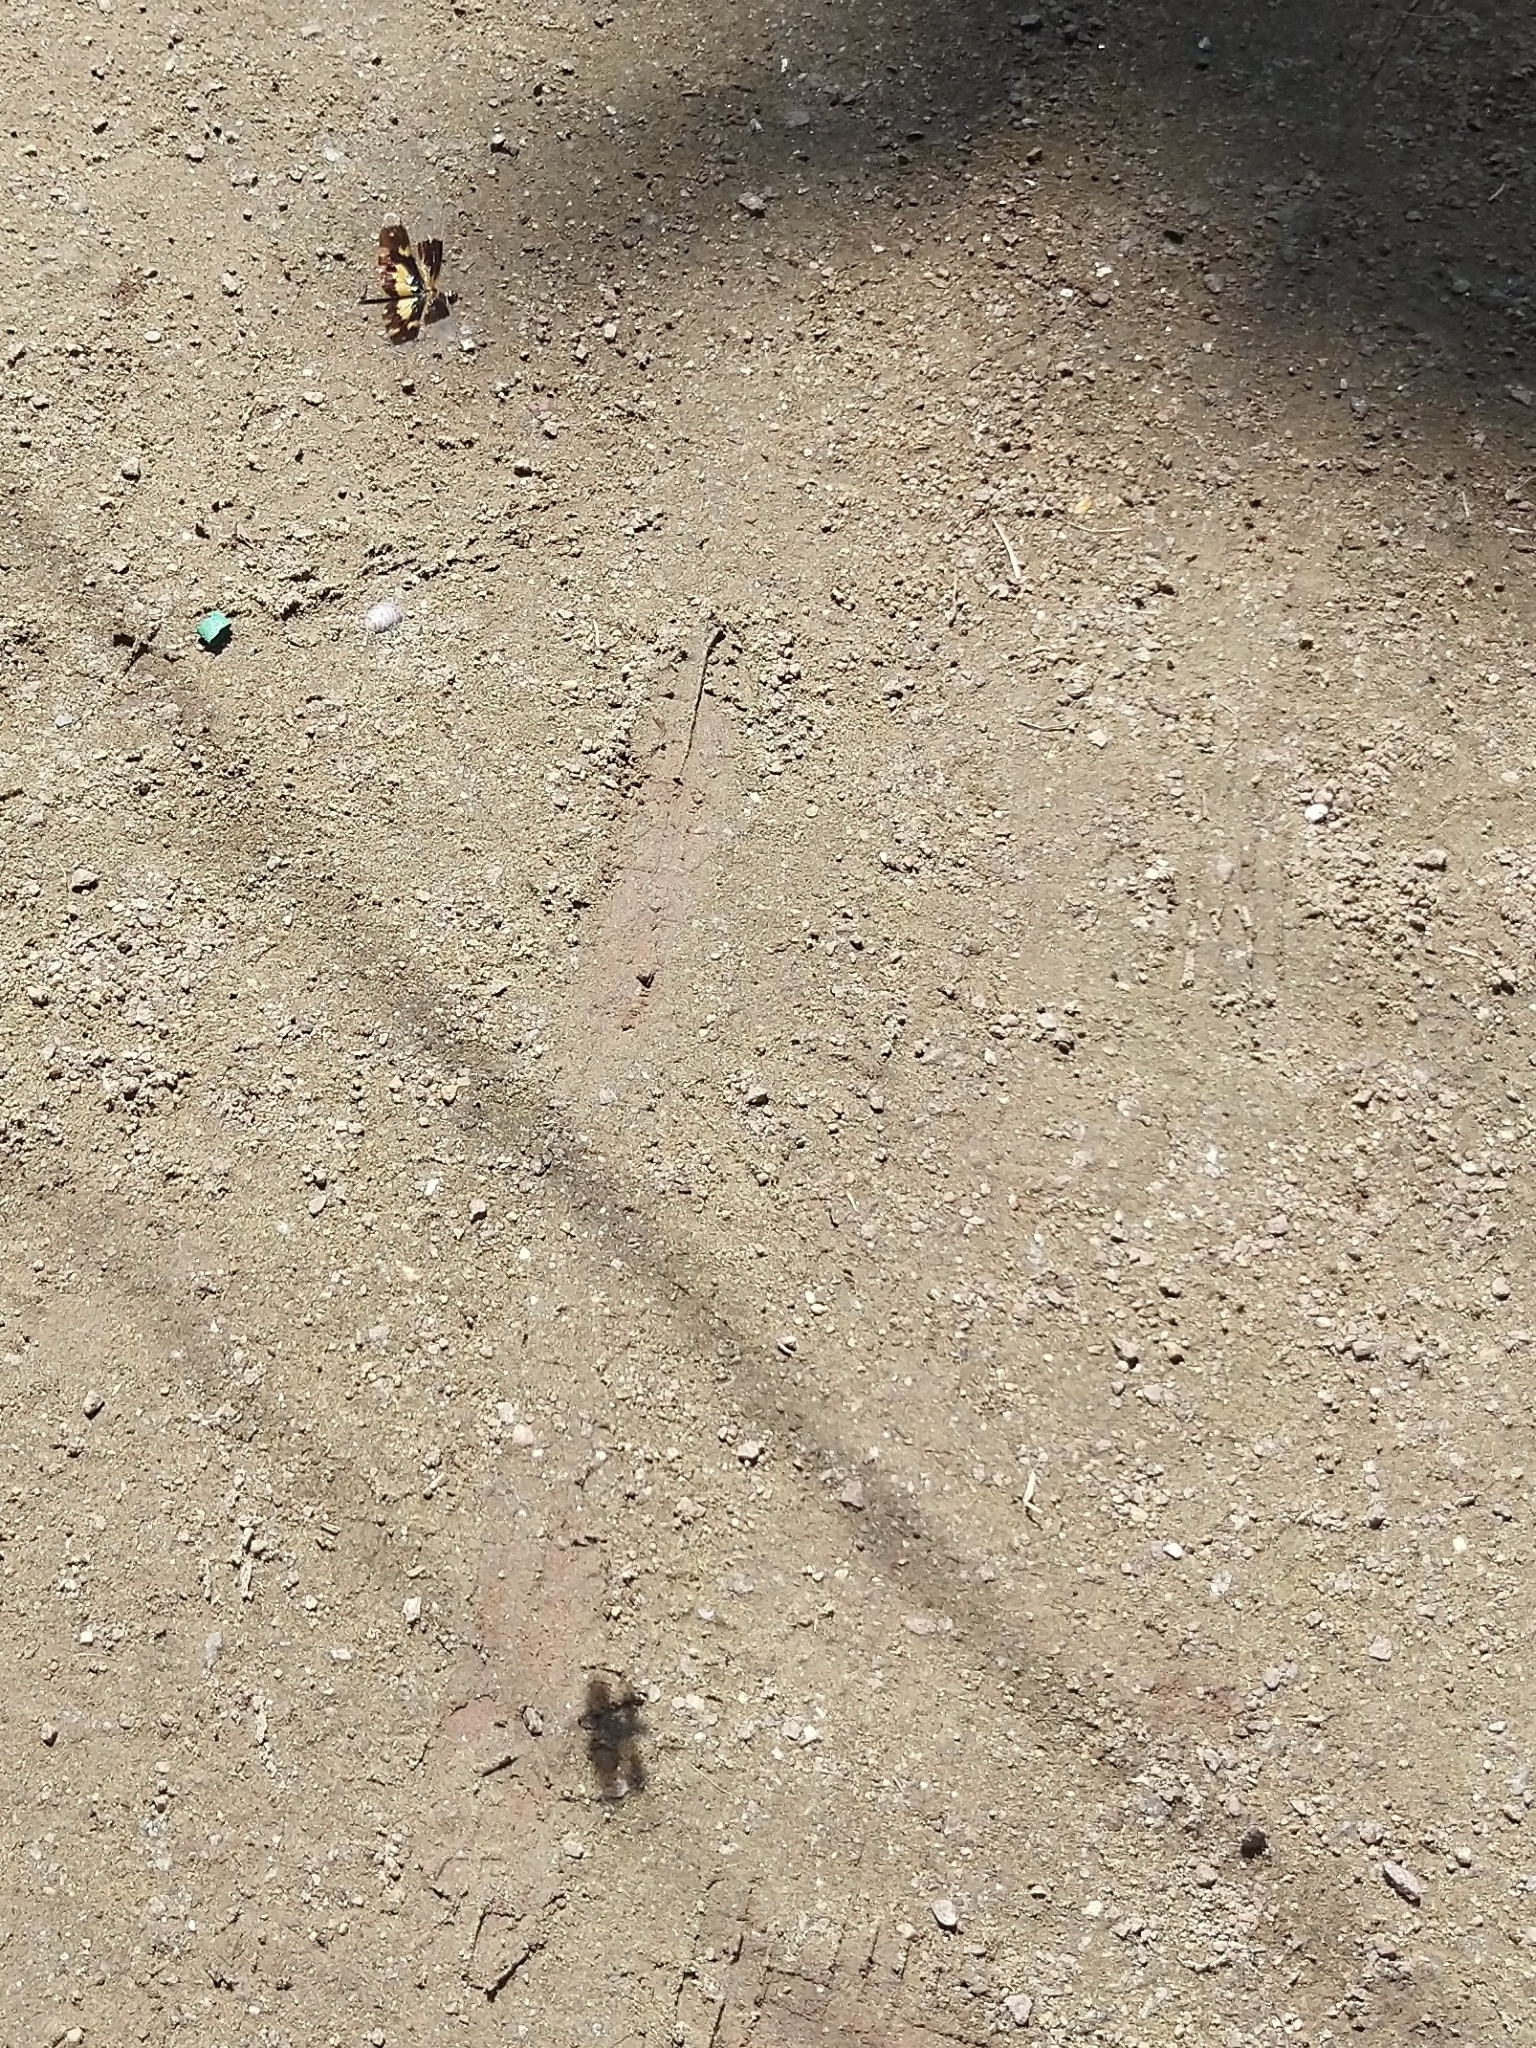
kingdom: Animalia
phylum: Arthropoda
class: Insecta
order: Odonata
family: Libellulidae
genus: Rhyothemis
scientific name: Rhyothemis variegata
